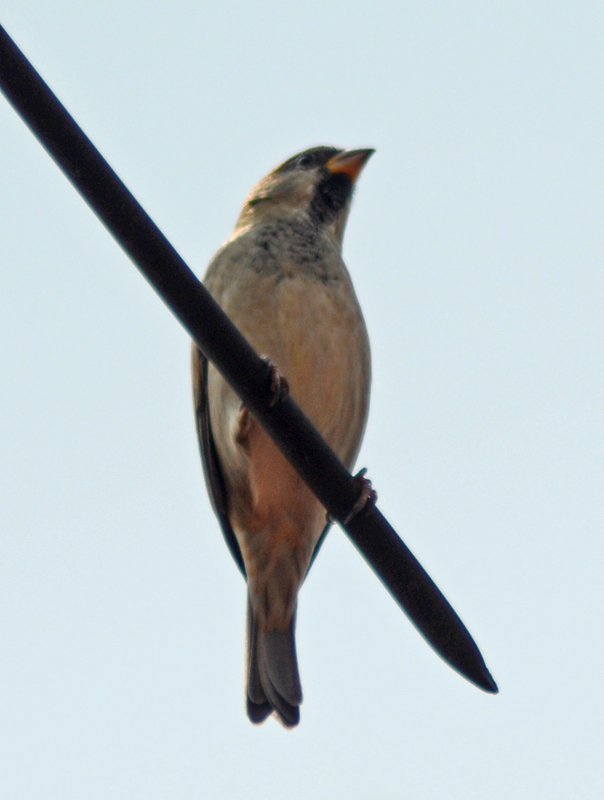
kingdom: Animalia
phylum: Chordata
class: Aves
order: Passeriformes
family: Passeridae
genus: Passer
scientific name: Passer domesticus
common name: House sparrow
